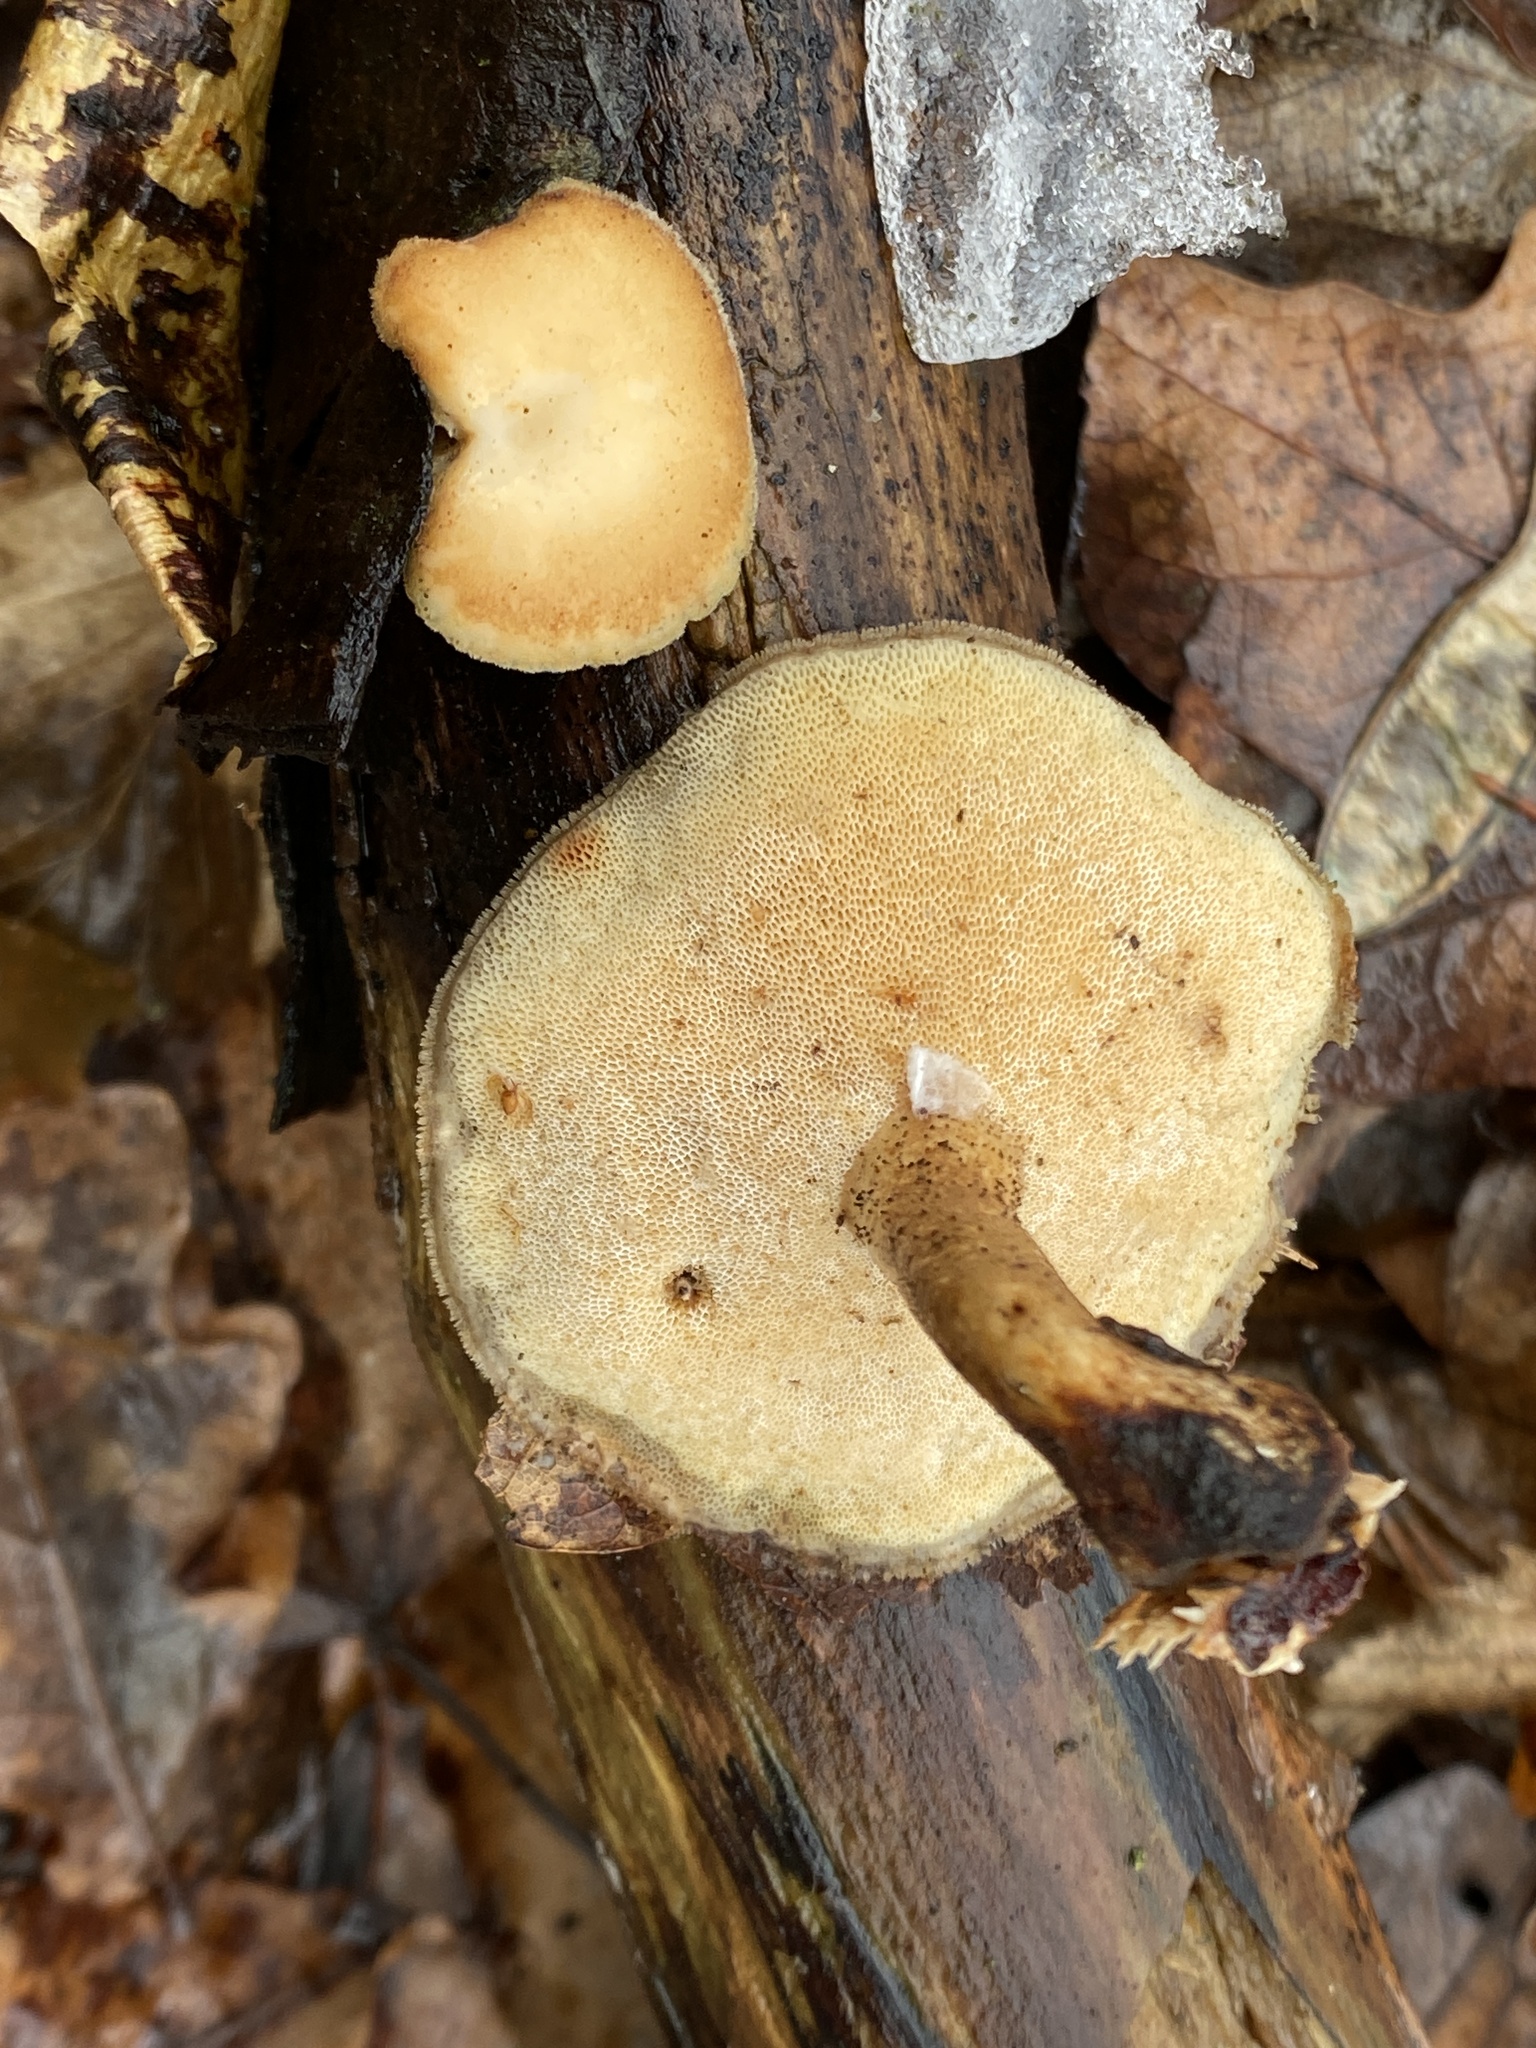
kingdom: Fungi
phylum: Basidiomycota
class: Agaricomycetes
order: Polyporales
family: Polyporaceae
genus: Lentinus
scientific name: Lentinus brumalis
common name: Winter polypore
